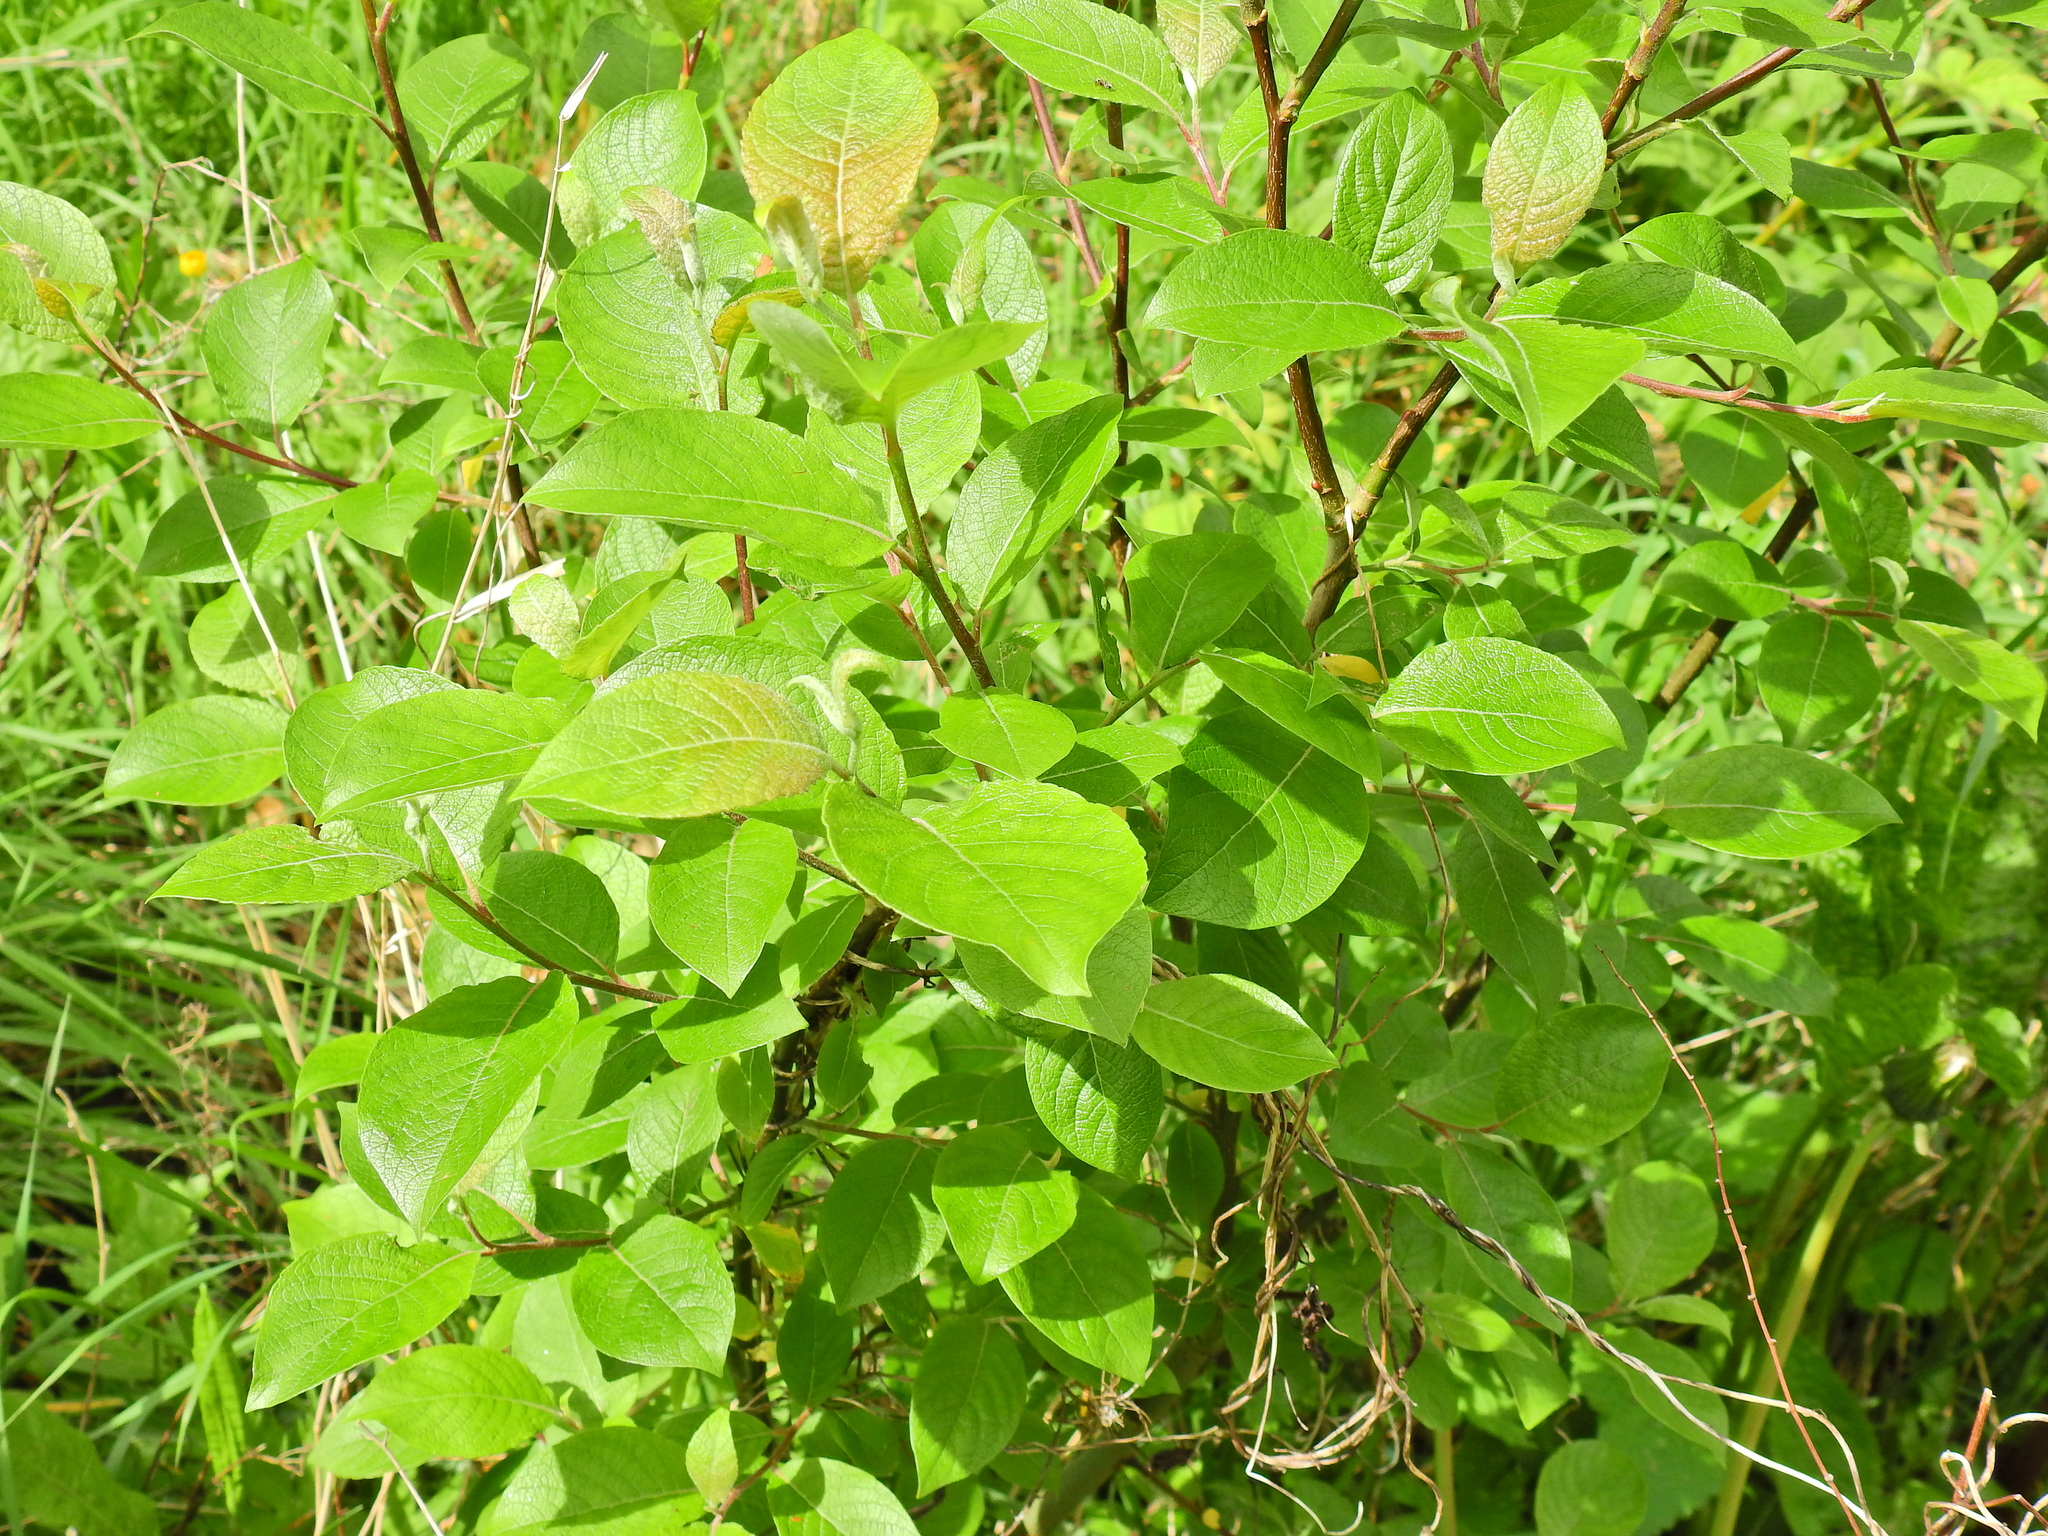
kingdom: Plantae
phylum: Tracheophyta
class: Magnoliopsida
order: Malpighiales
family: Salicaceae
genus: Salix
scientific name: Salix caprea
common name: Goat willow
